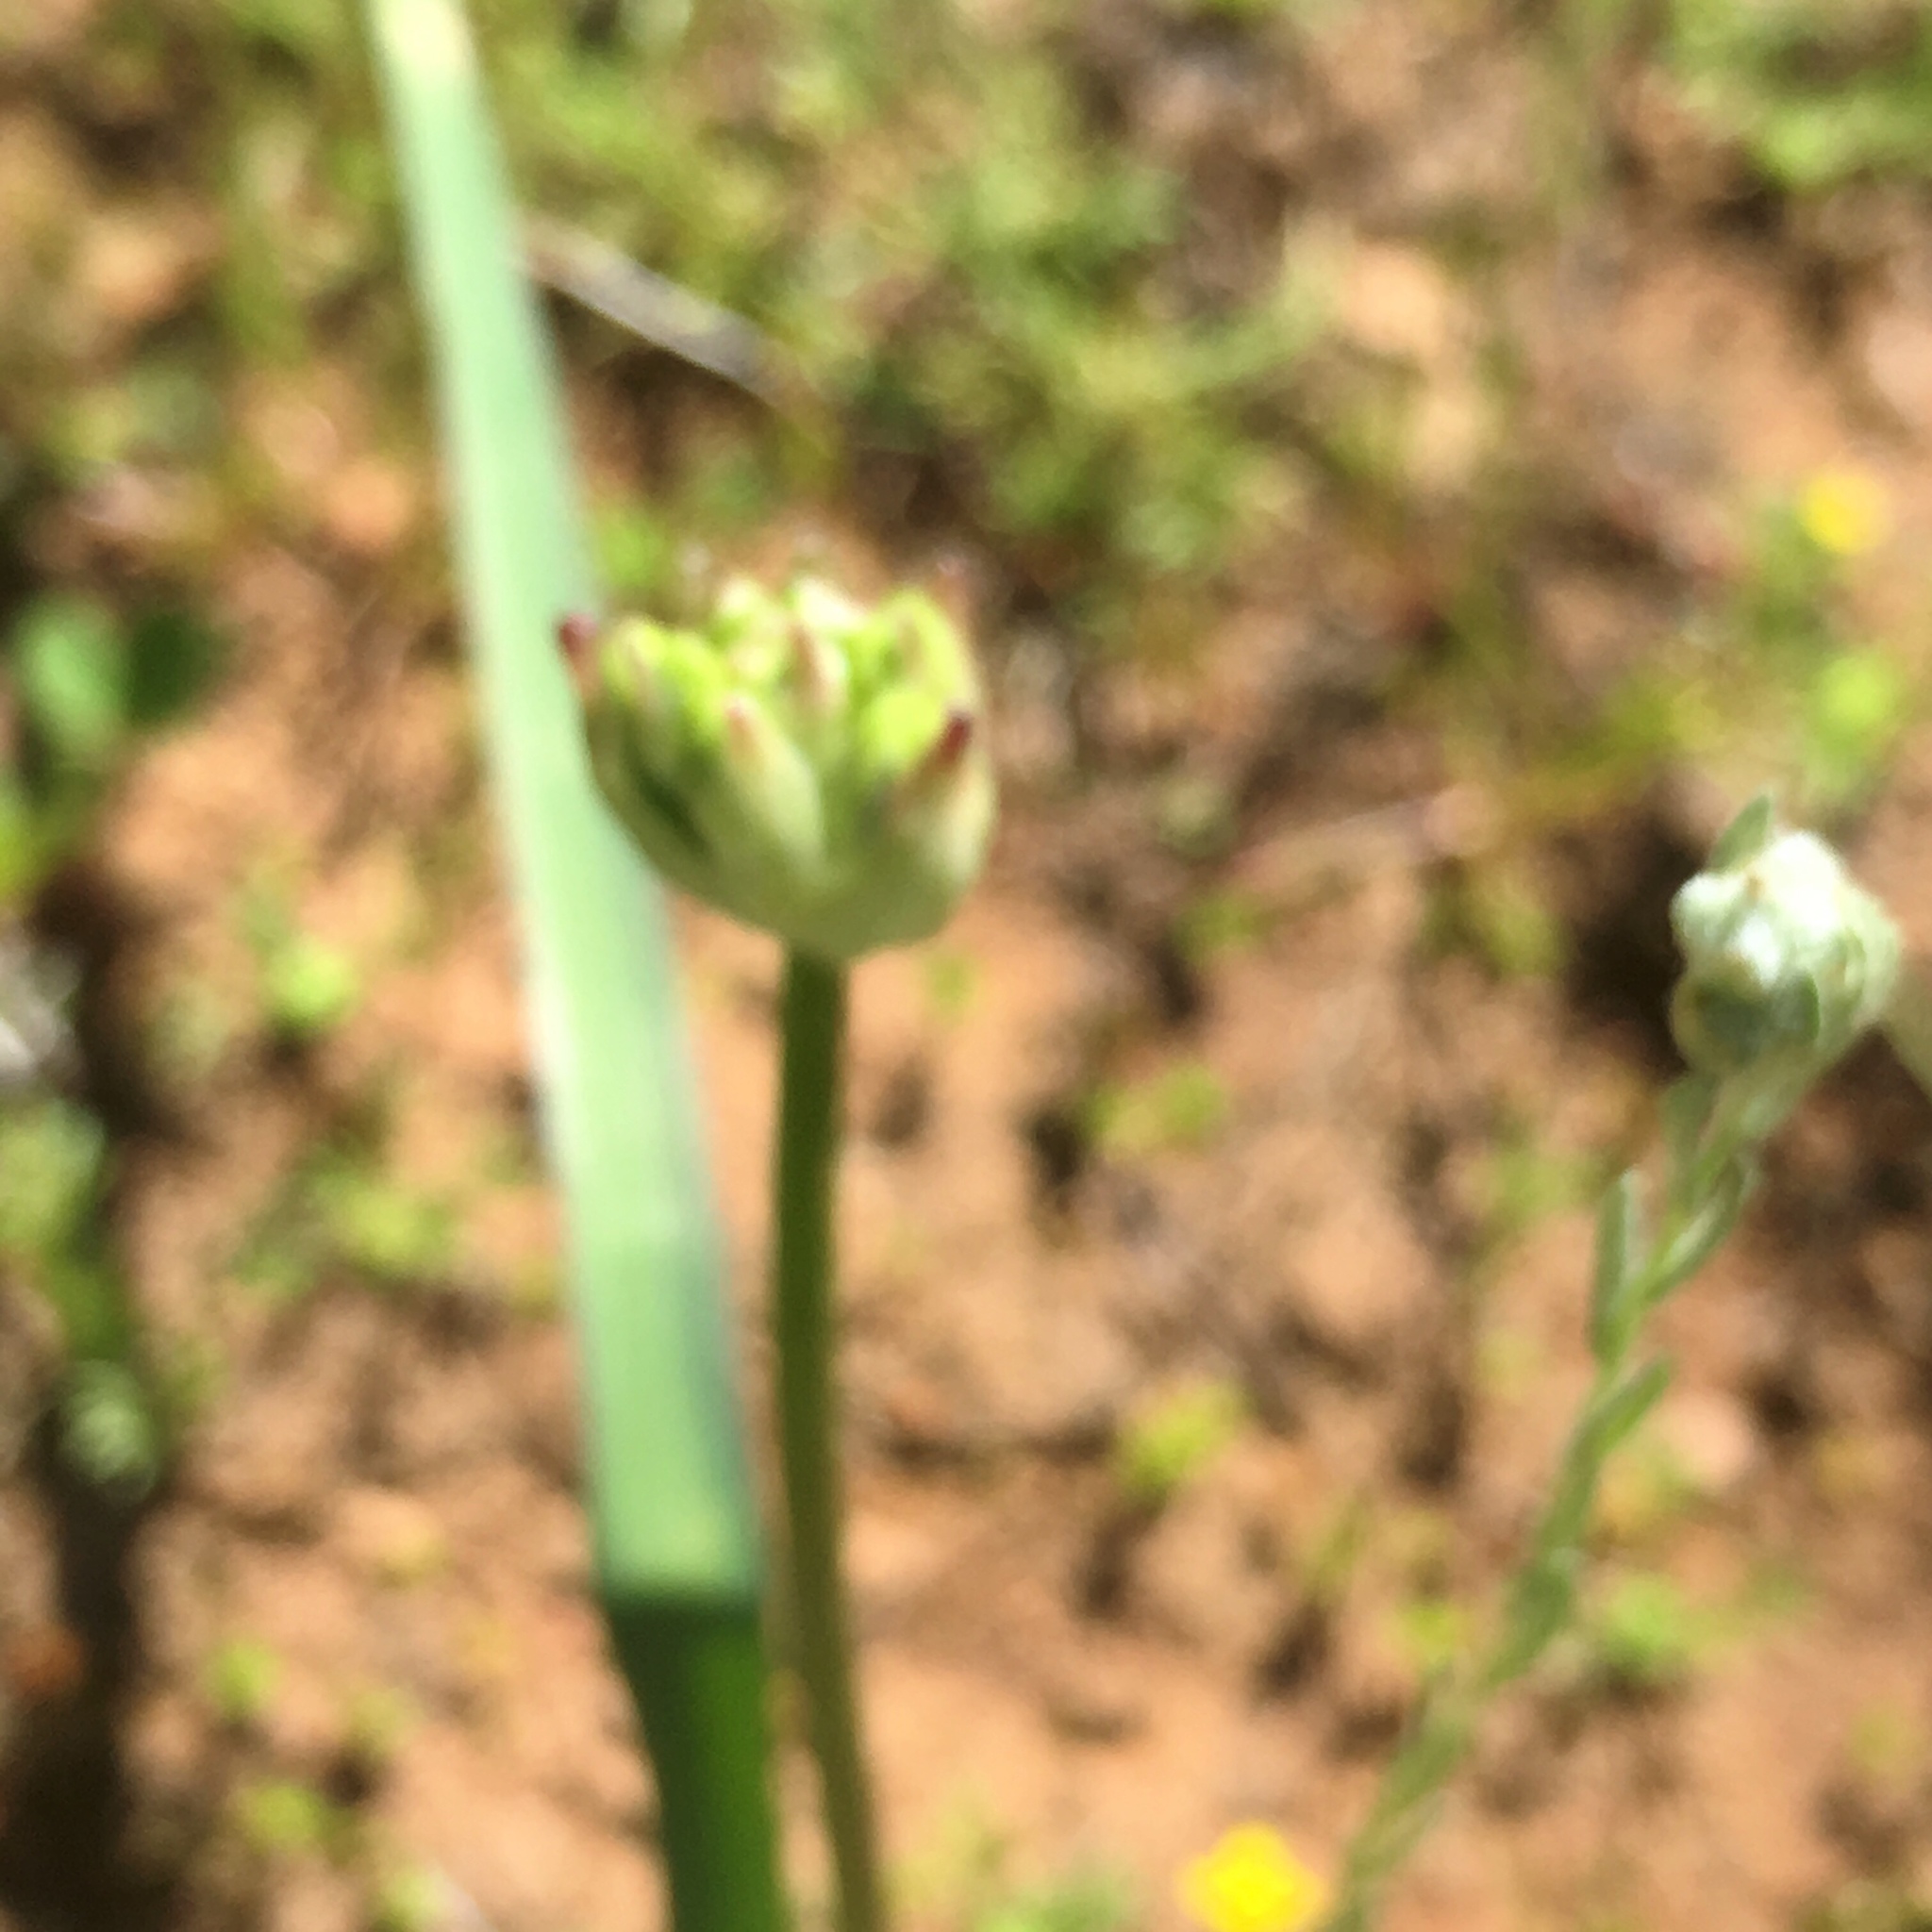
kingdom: Plantae
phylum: Tracheophyta
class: Liliopsida
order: Asparagales
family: Asparagaceae
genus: Dichelostemma
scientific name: Dichelostemma multiflorum
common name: Round-tooth ookow
